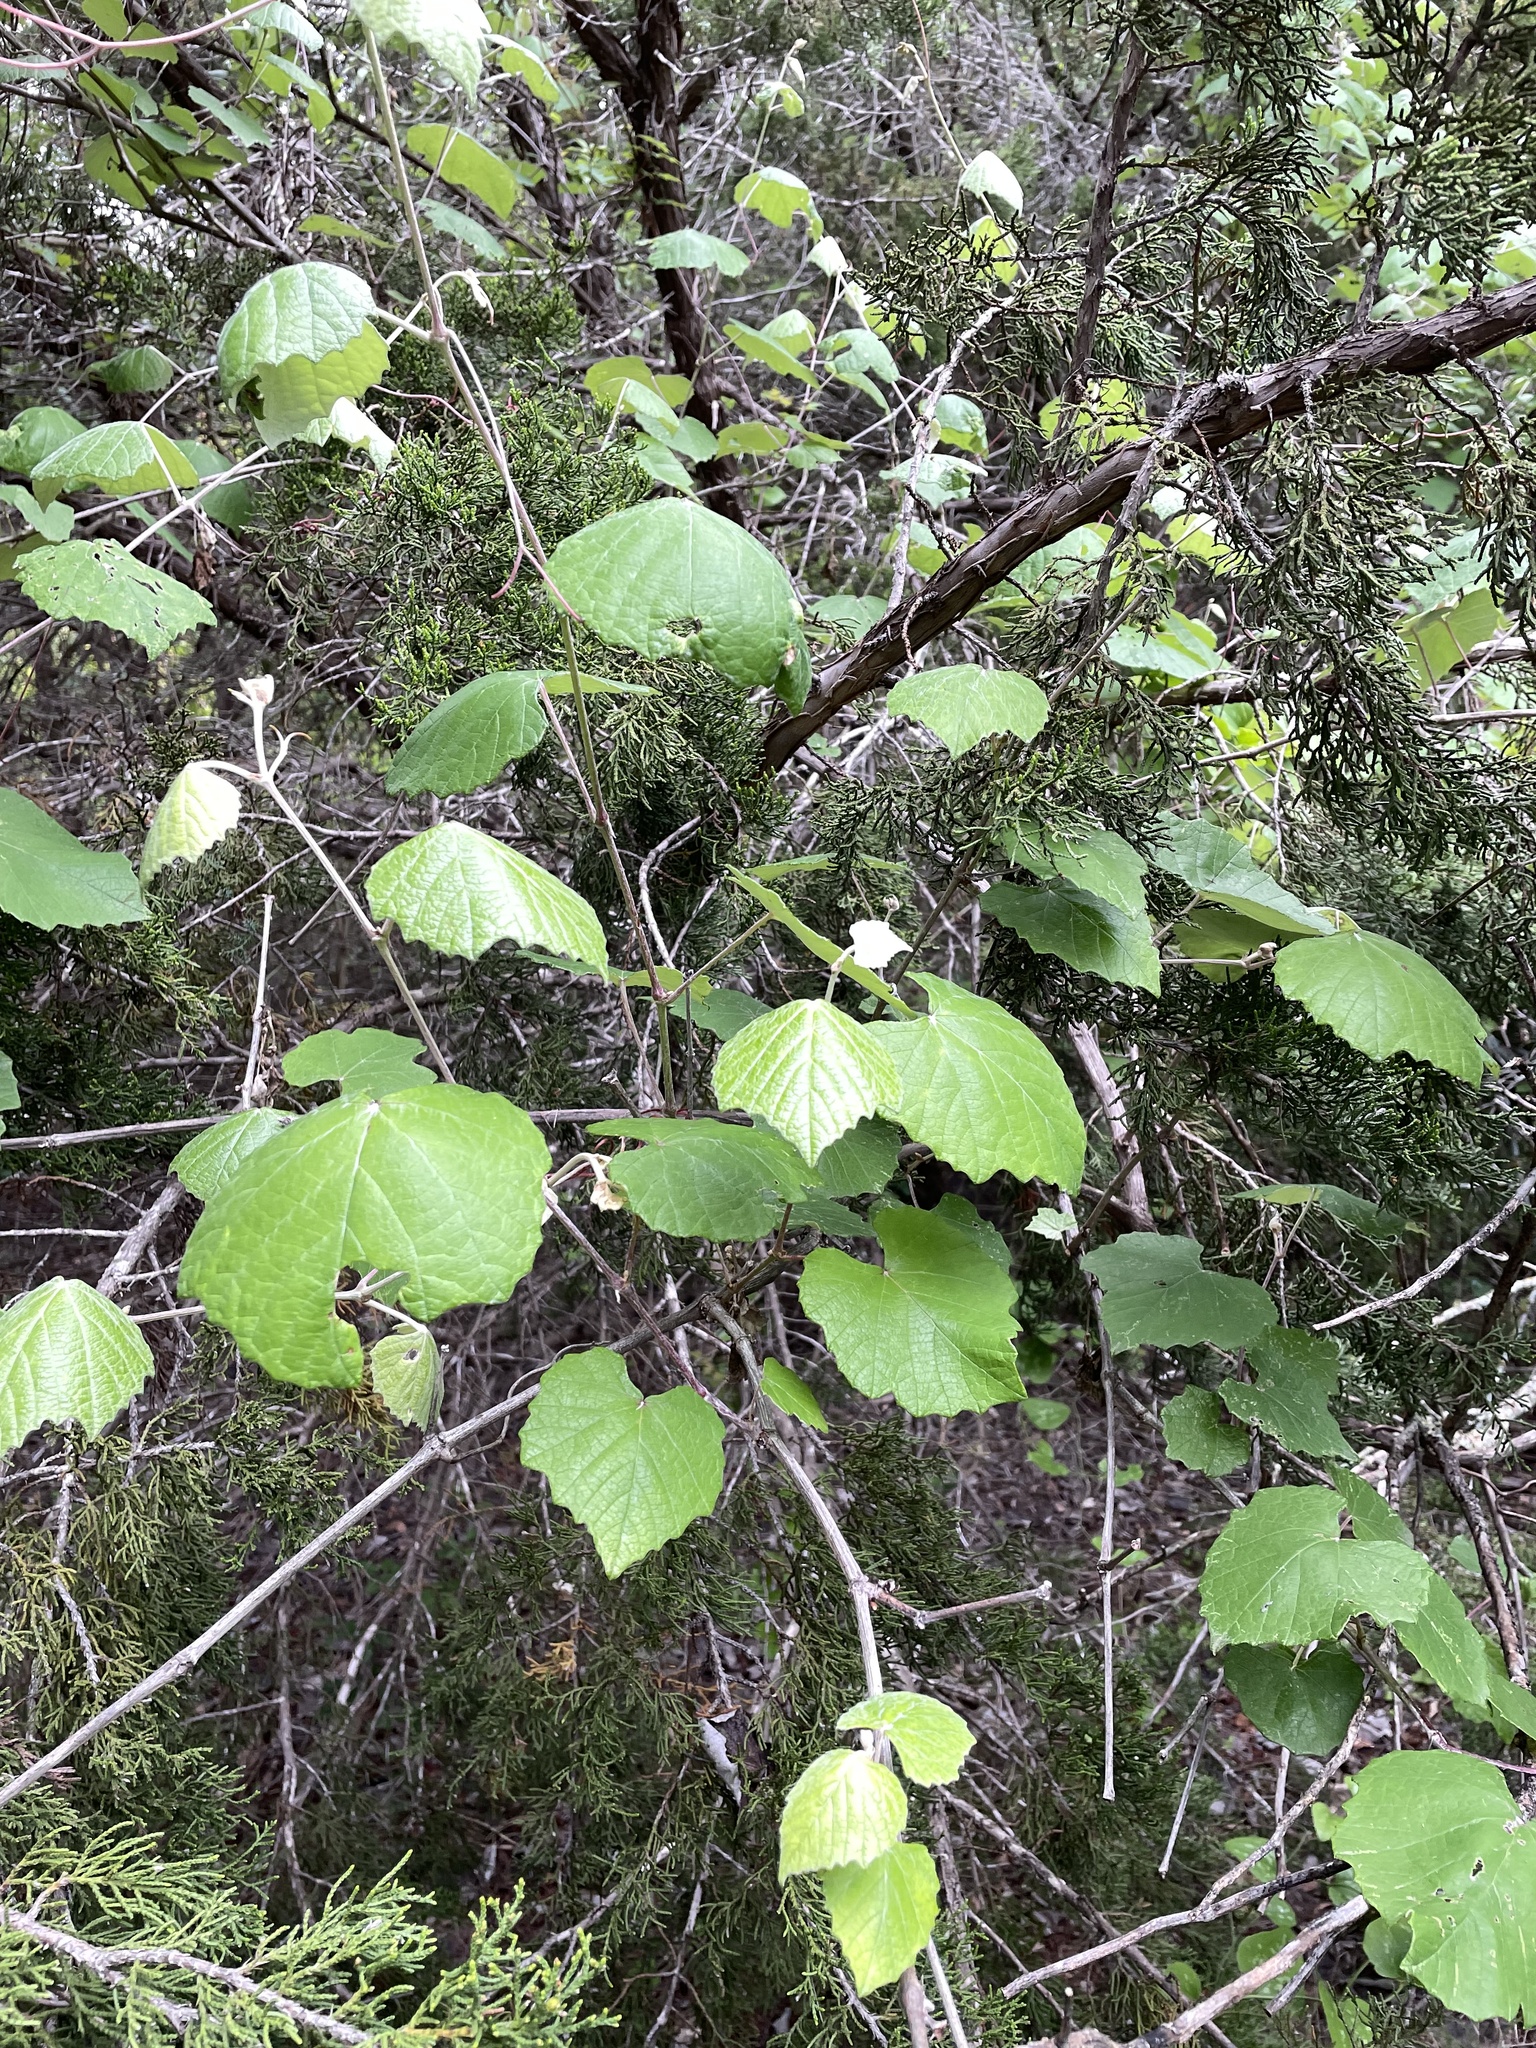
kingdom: Plantae
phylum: Tracheophyta
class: Magnoliopsida
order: Vitales
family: Vitaceae
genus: Vitis
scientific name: Vitis mustangensis
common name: Mustang grape
